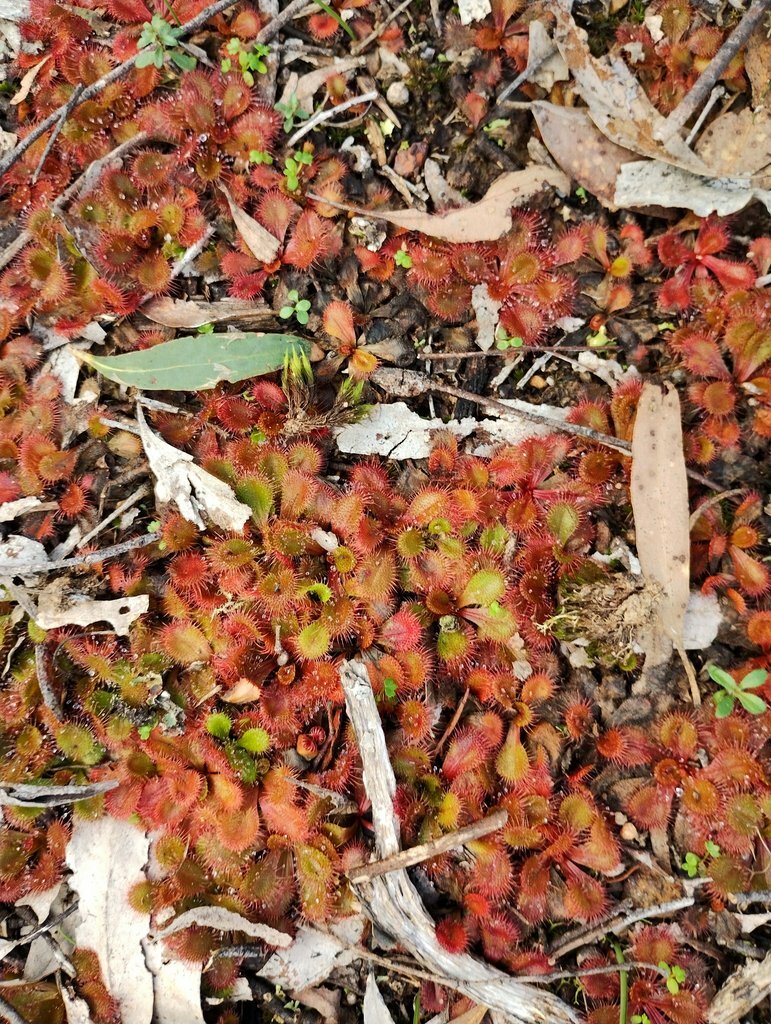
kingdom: Plantae
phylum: Tracheophyta
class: Magnoliopsida
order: Caryophyllales
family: Droseraceae
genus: Drosera
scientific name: Drosera aberrans
